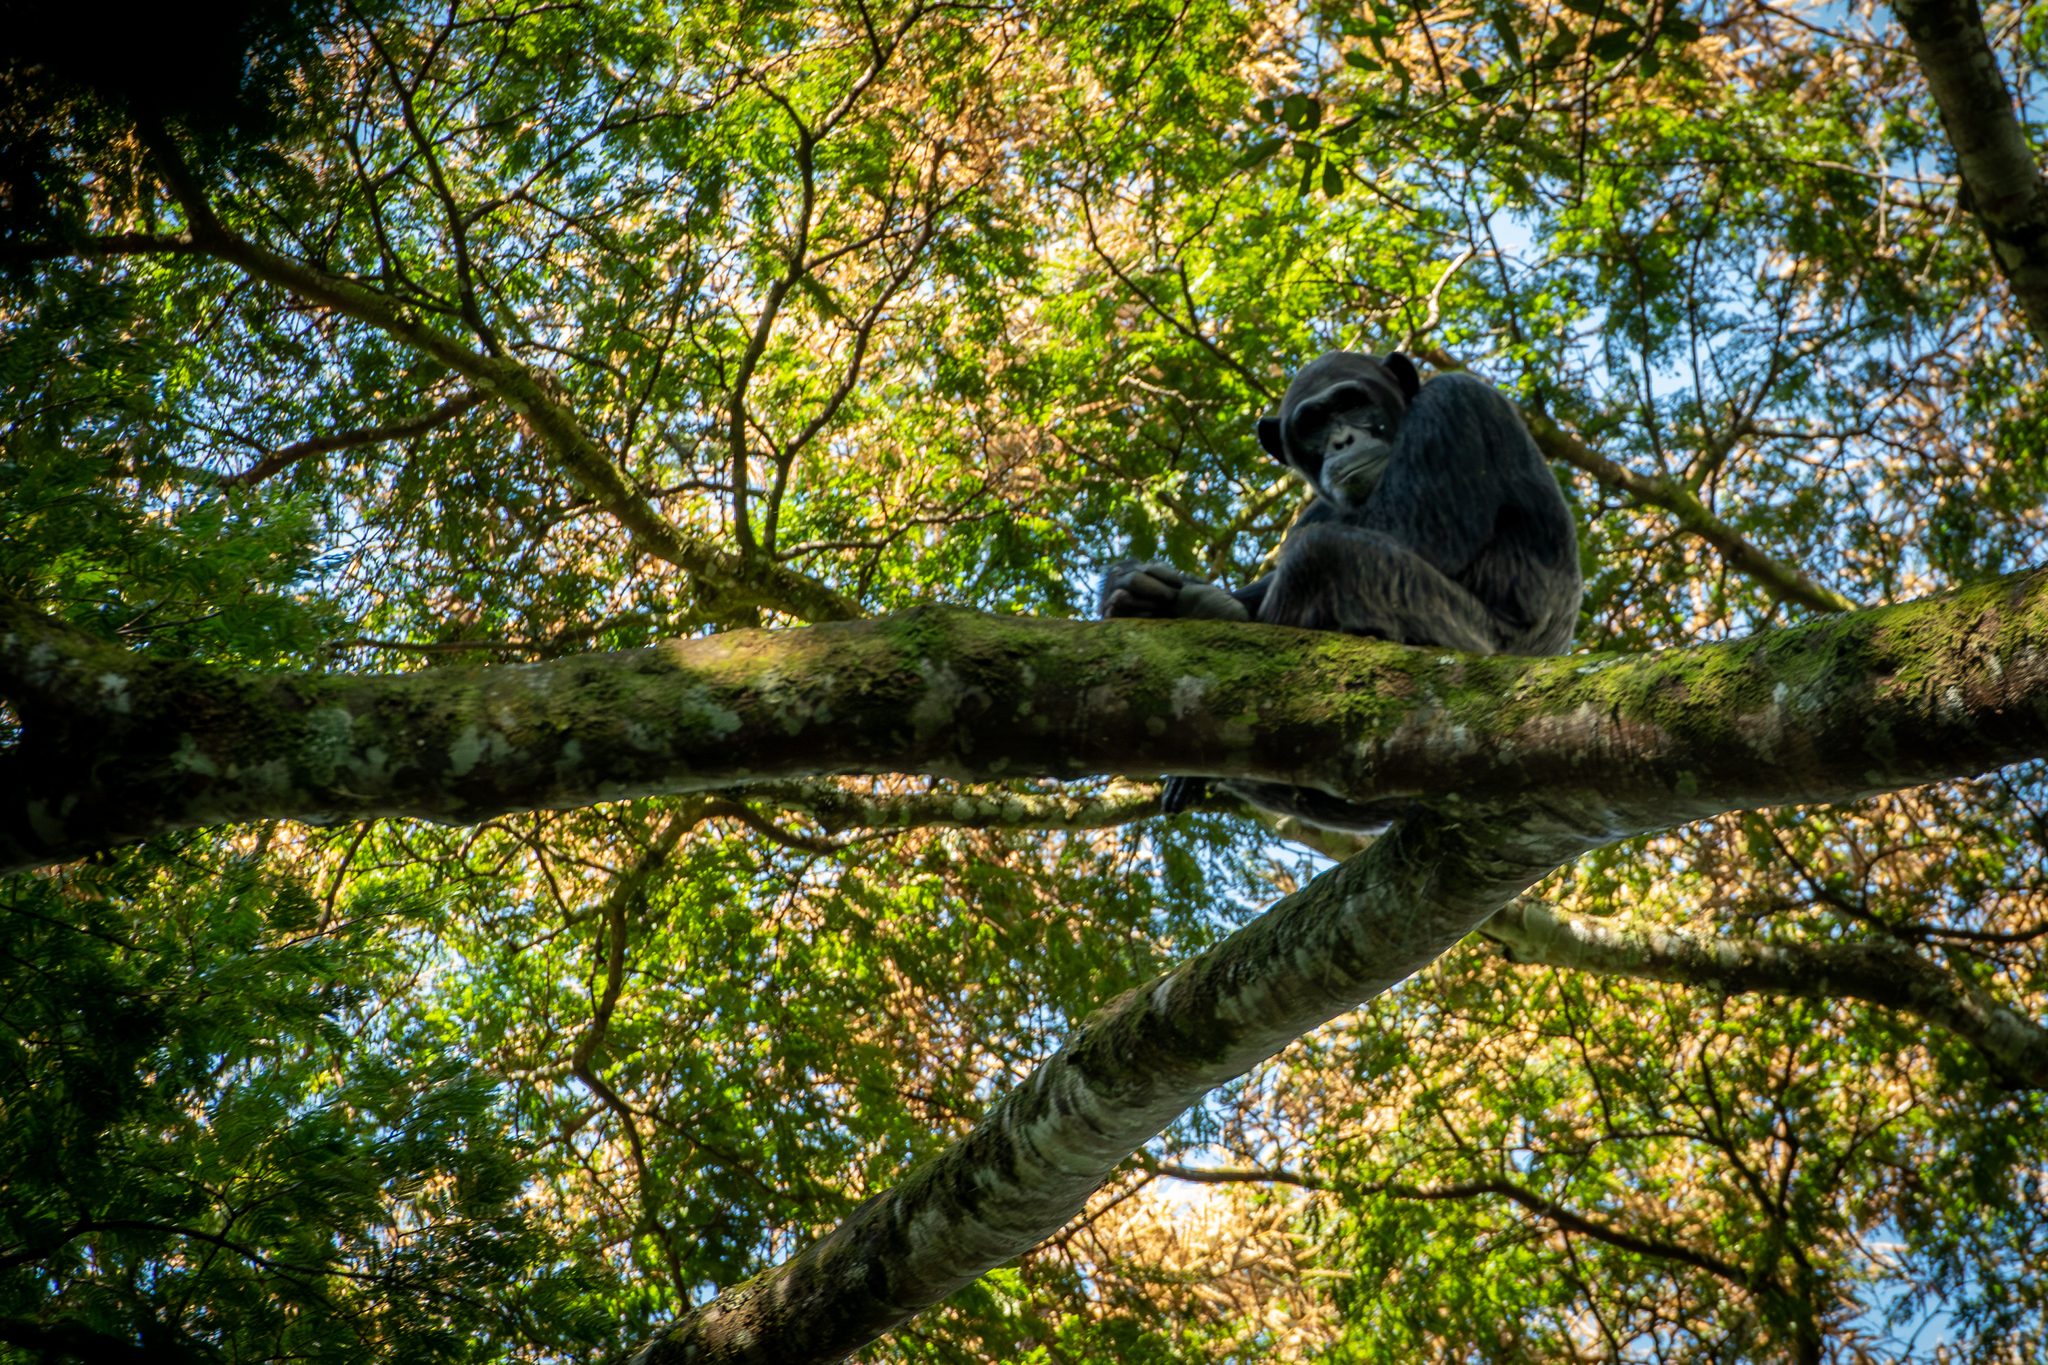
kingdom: Animalia
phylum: Chordata
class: Mammalia
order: Primates
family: Hominidae
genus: Pan
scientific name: Pan troglodytes
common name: Chimpanzee
